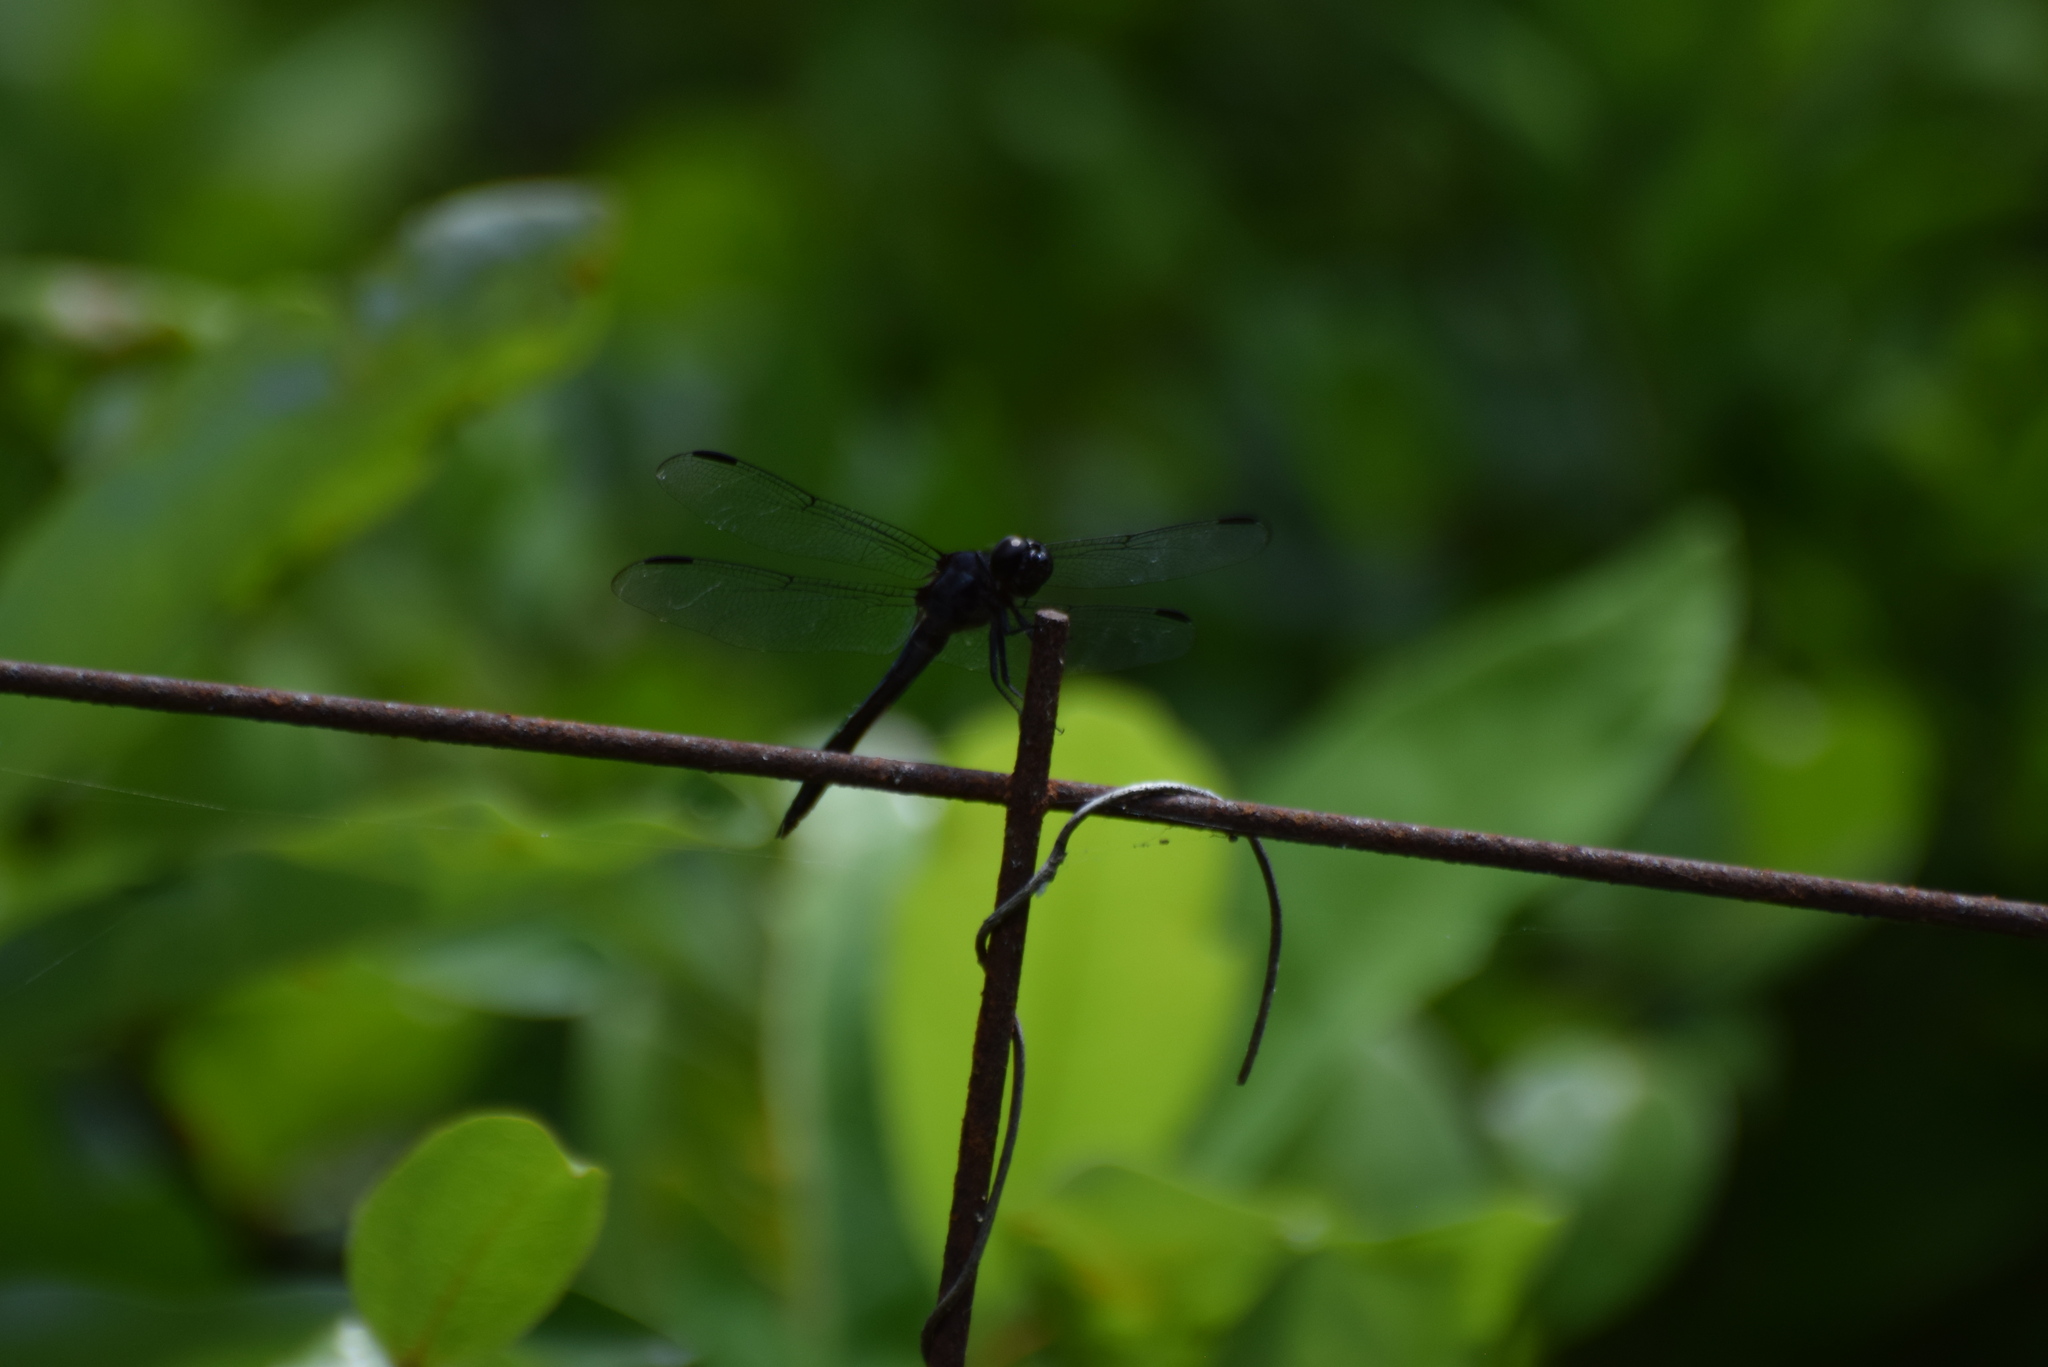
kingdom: Animalia
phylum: Arthropoda
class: Insecta
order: Odonata
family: Libellulidae
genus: Libellula
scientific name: Libellula incesta
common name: Slaty skimmer
